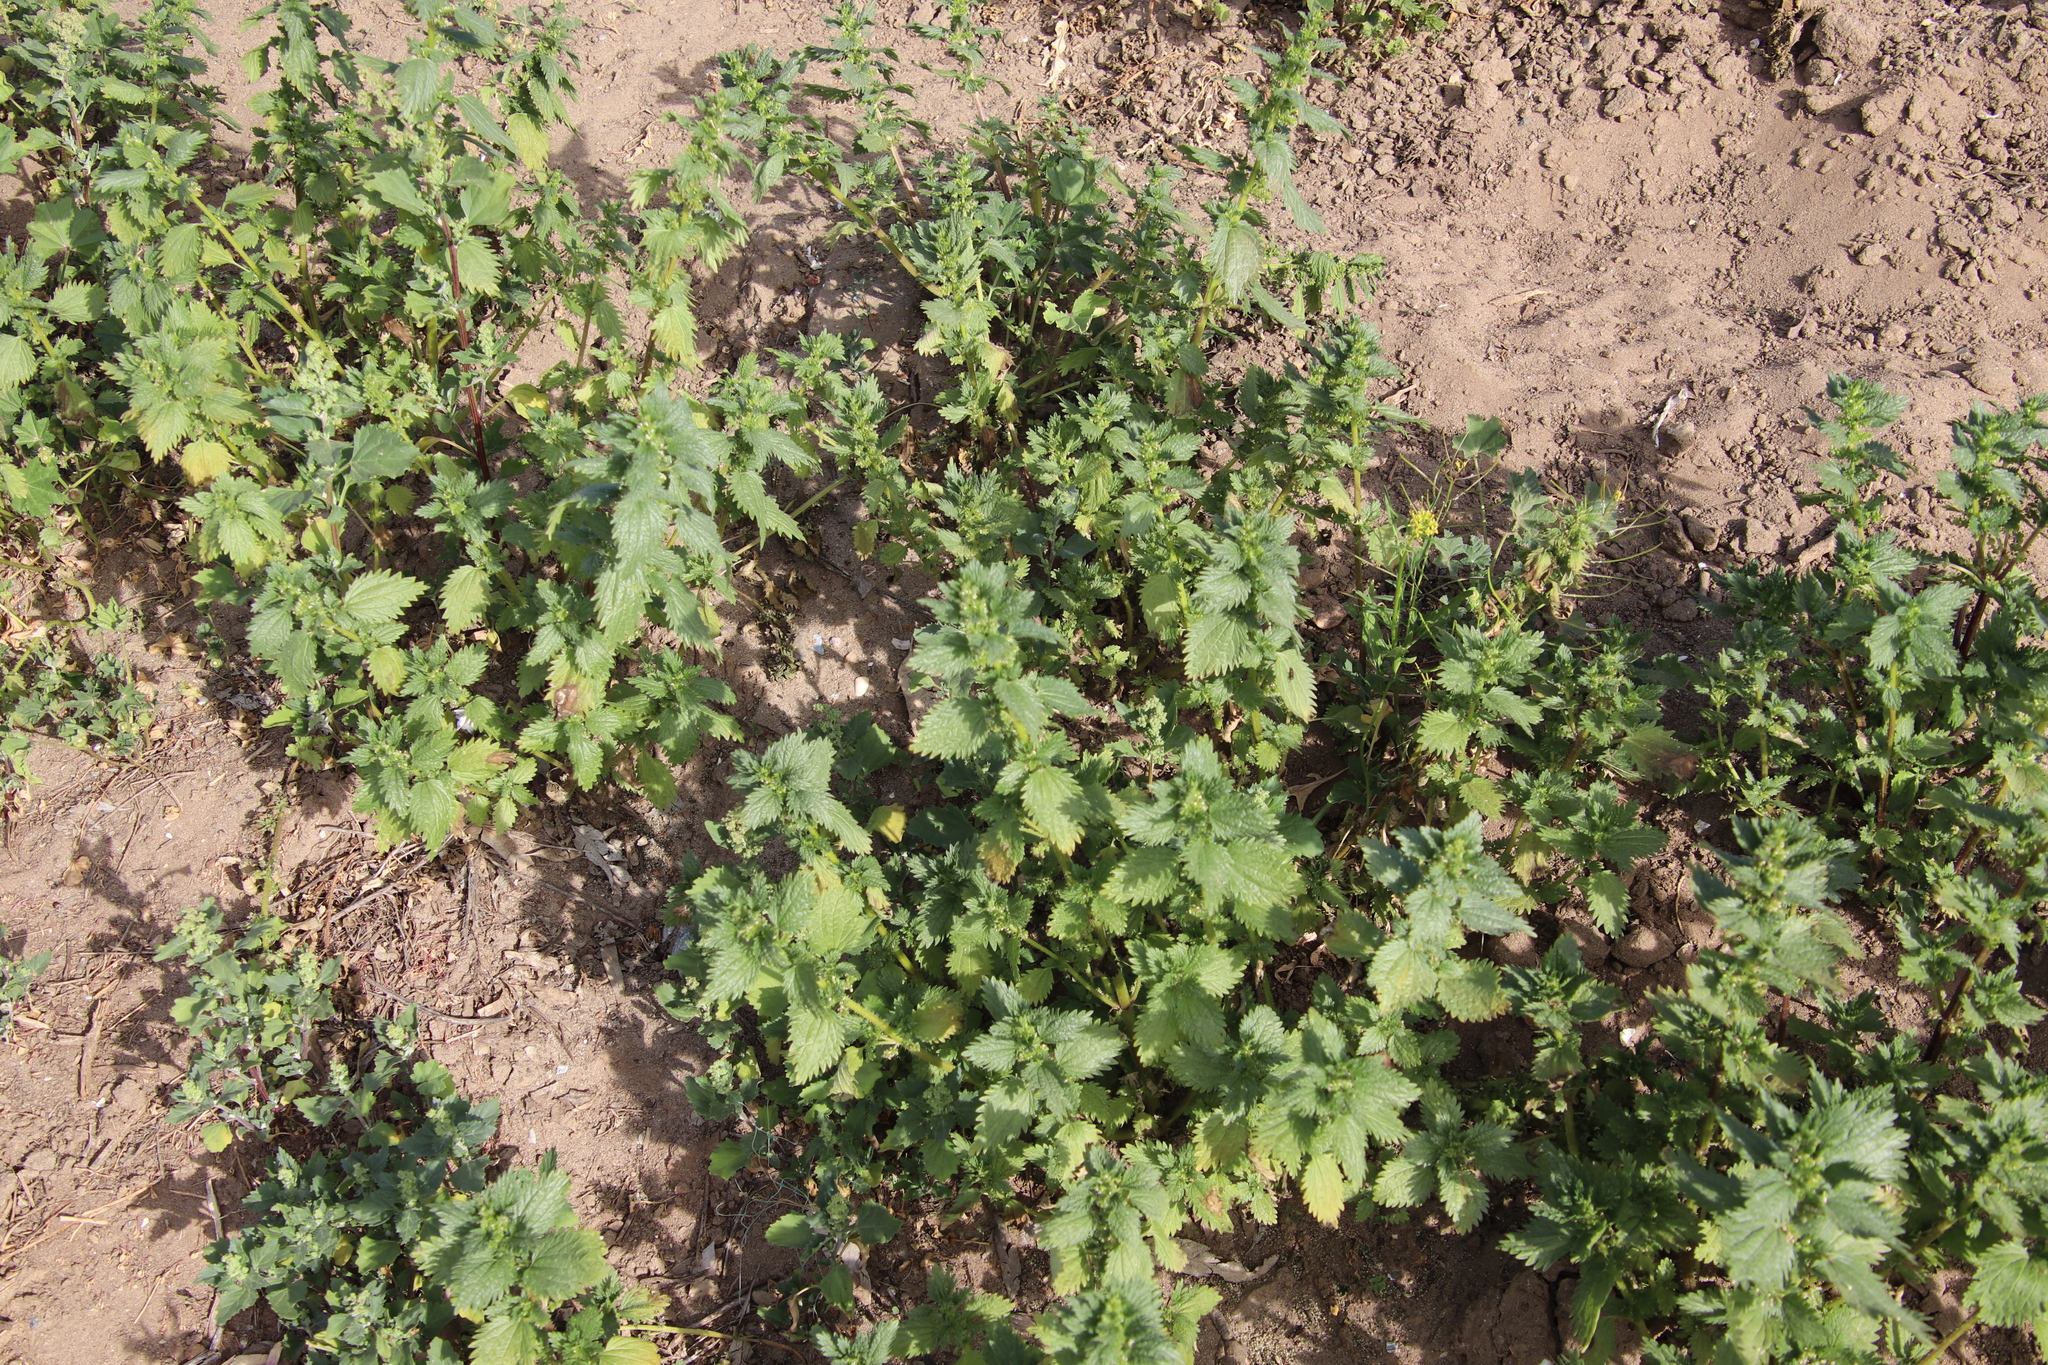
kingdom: Plantae
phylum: Tracheophyta
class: Magnoliopsida
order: Rosales
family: Urticaceae
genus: Urtica
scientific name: Urtica urens
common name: Dwarf nettle
